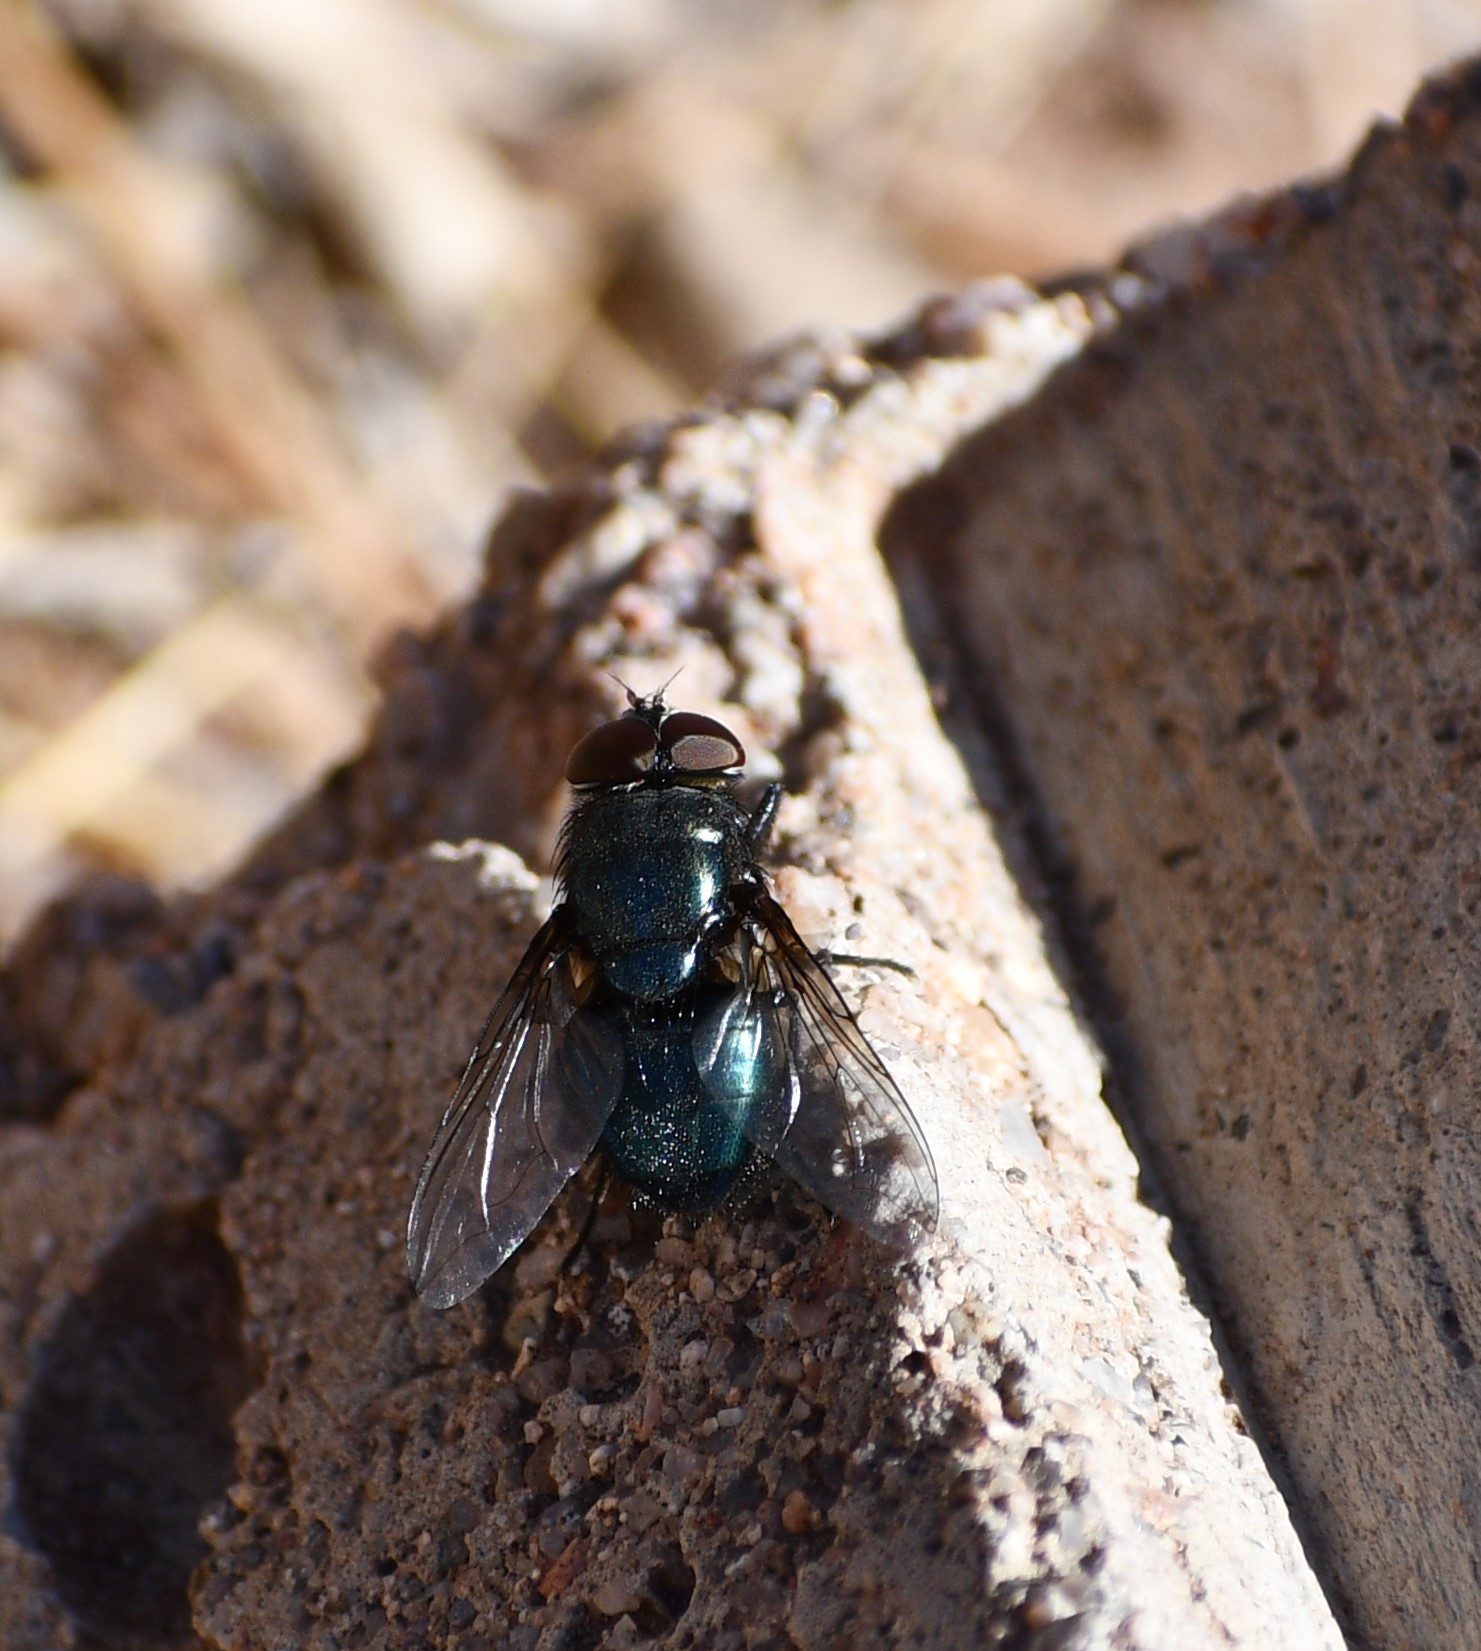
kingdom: Animalia
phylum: Arthropoda
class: Insecta
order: Diptera
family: Calliphoridae
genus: Phormia
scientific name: Phormia regina
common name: Black blow fly
